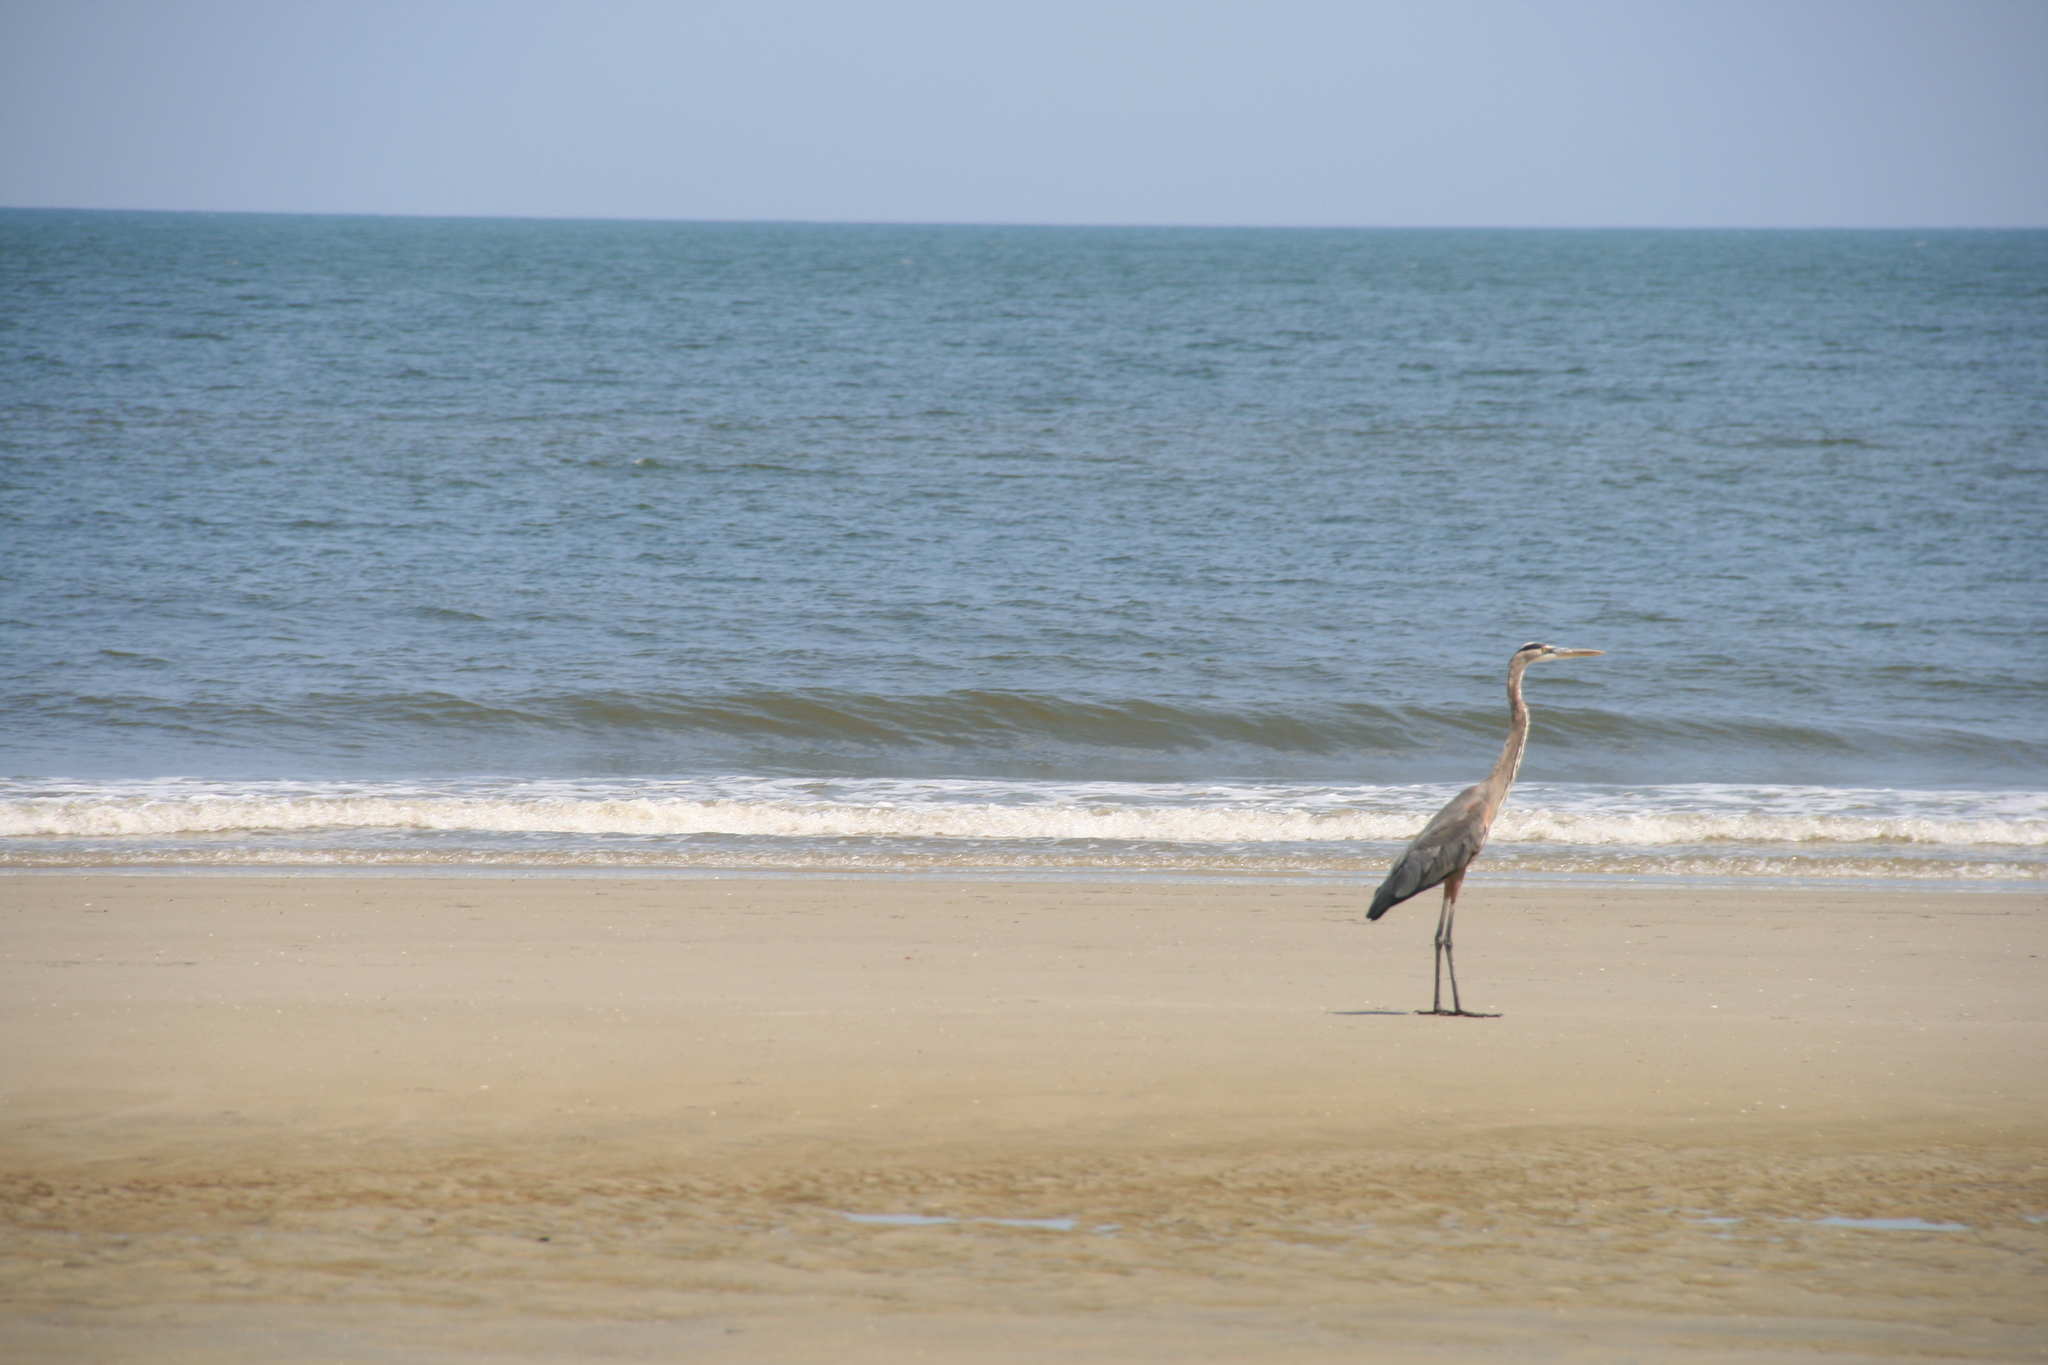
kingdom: Animalia
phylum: Chordata
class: Aves
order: Pelecaniformes
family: Ardeidae
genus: Ardea
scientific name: Ardea herodias
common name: Great blue heron
